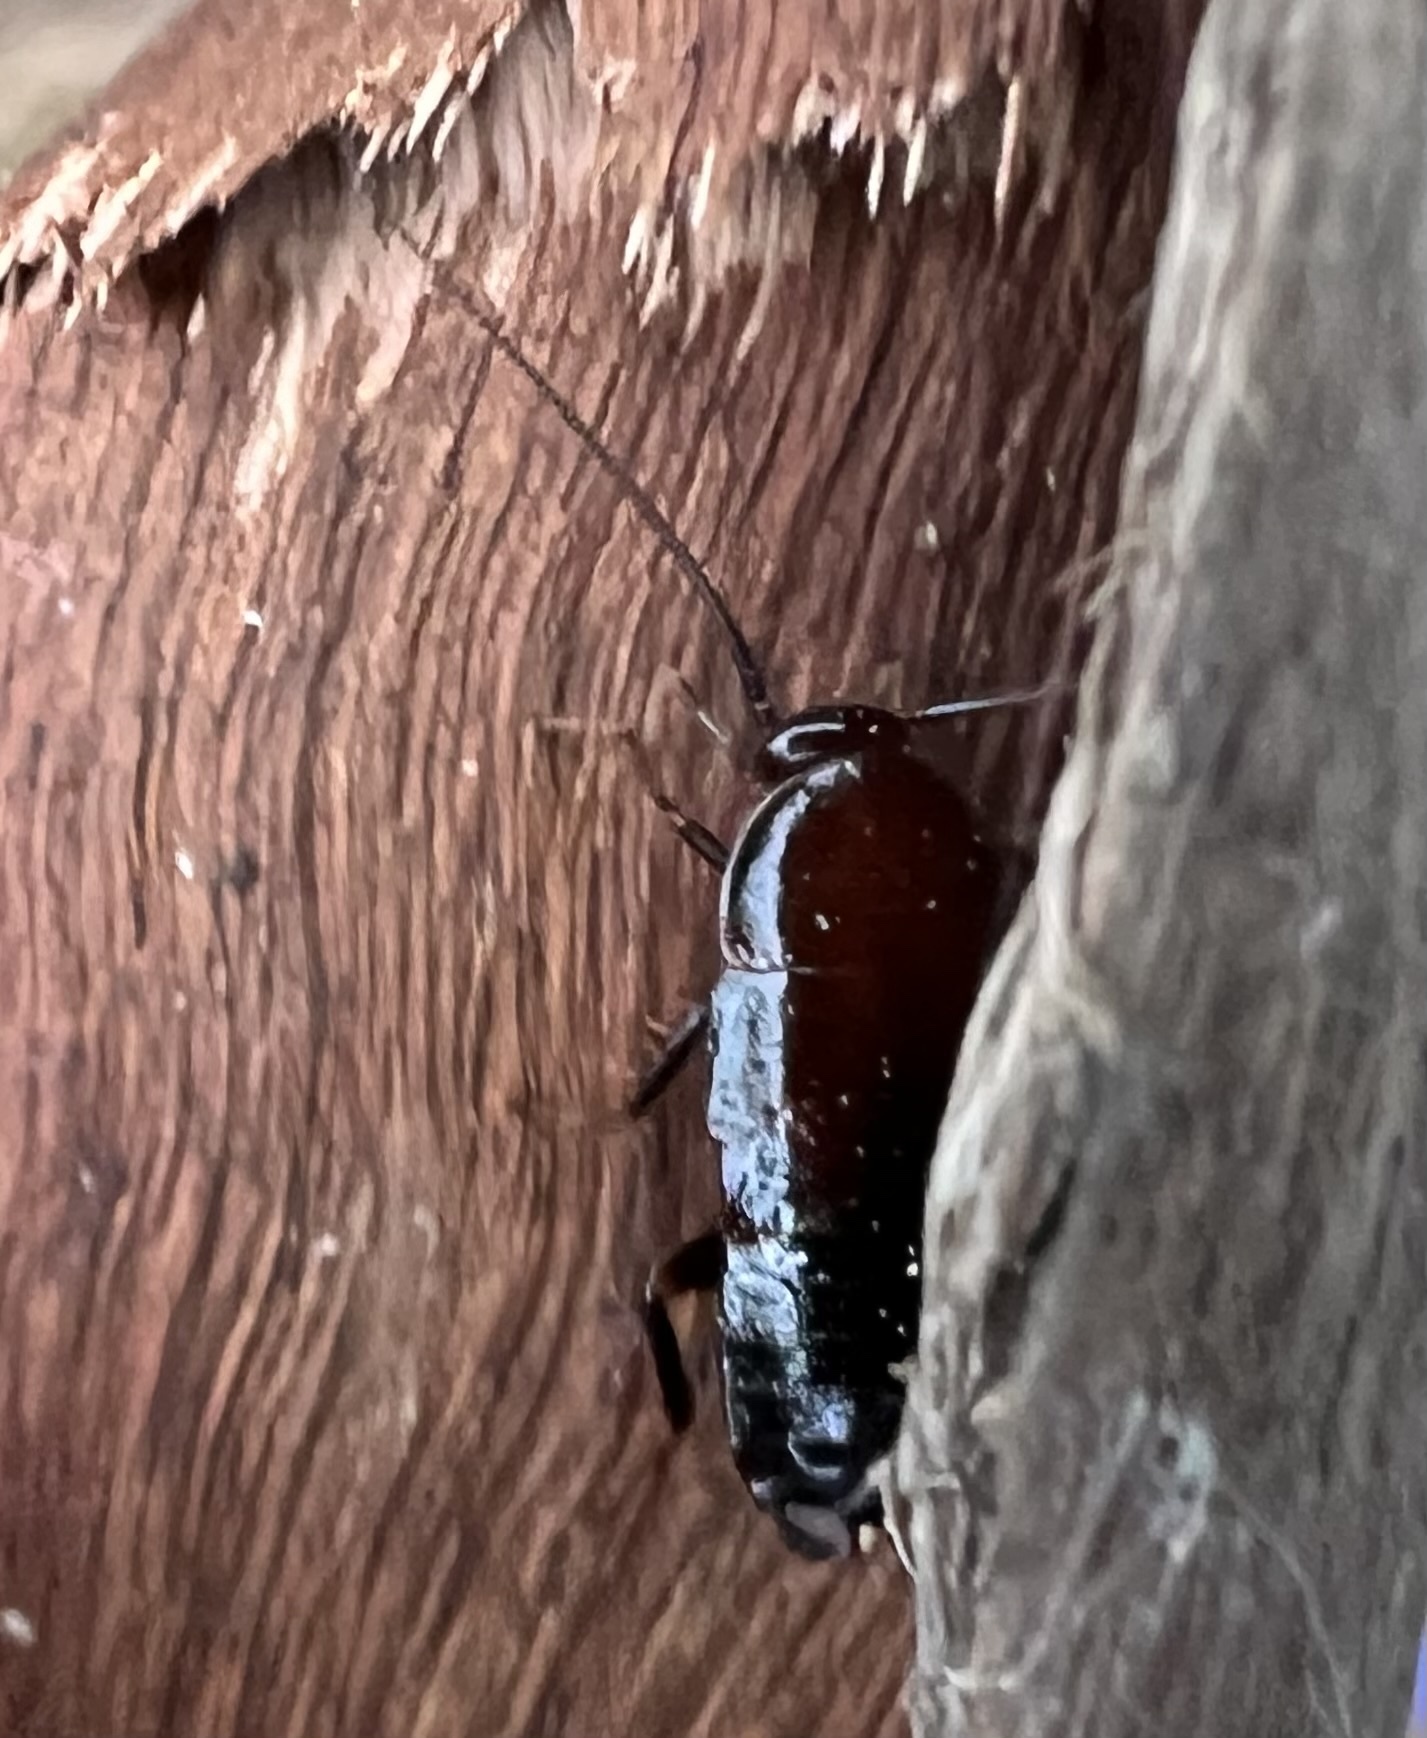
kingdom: Animalia
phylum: Arthropoda
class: Insecta
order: Blattodea
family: Ectobiidae
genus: Parcoblatta
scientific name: Parcoblatta americana
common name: Western wood cockroach
